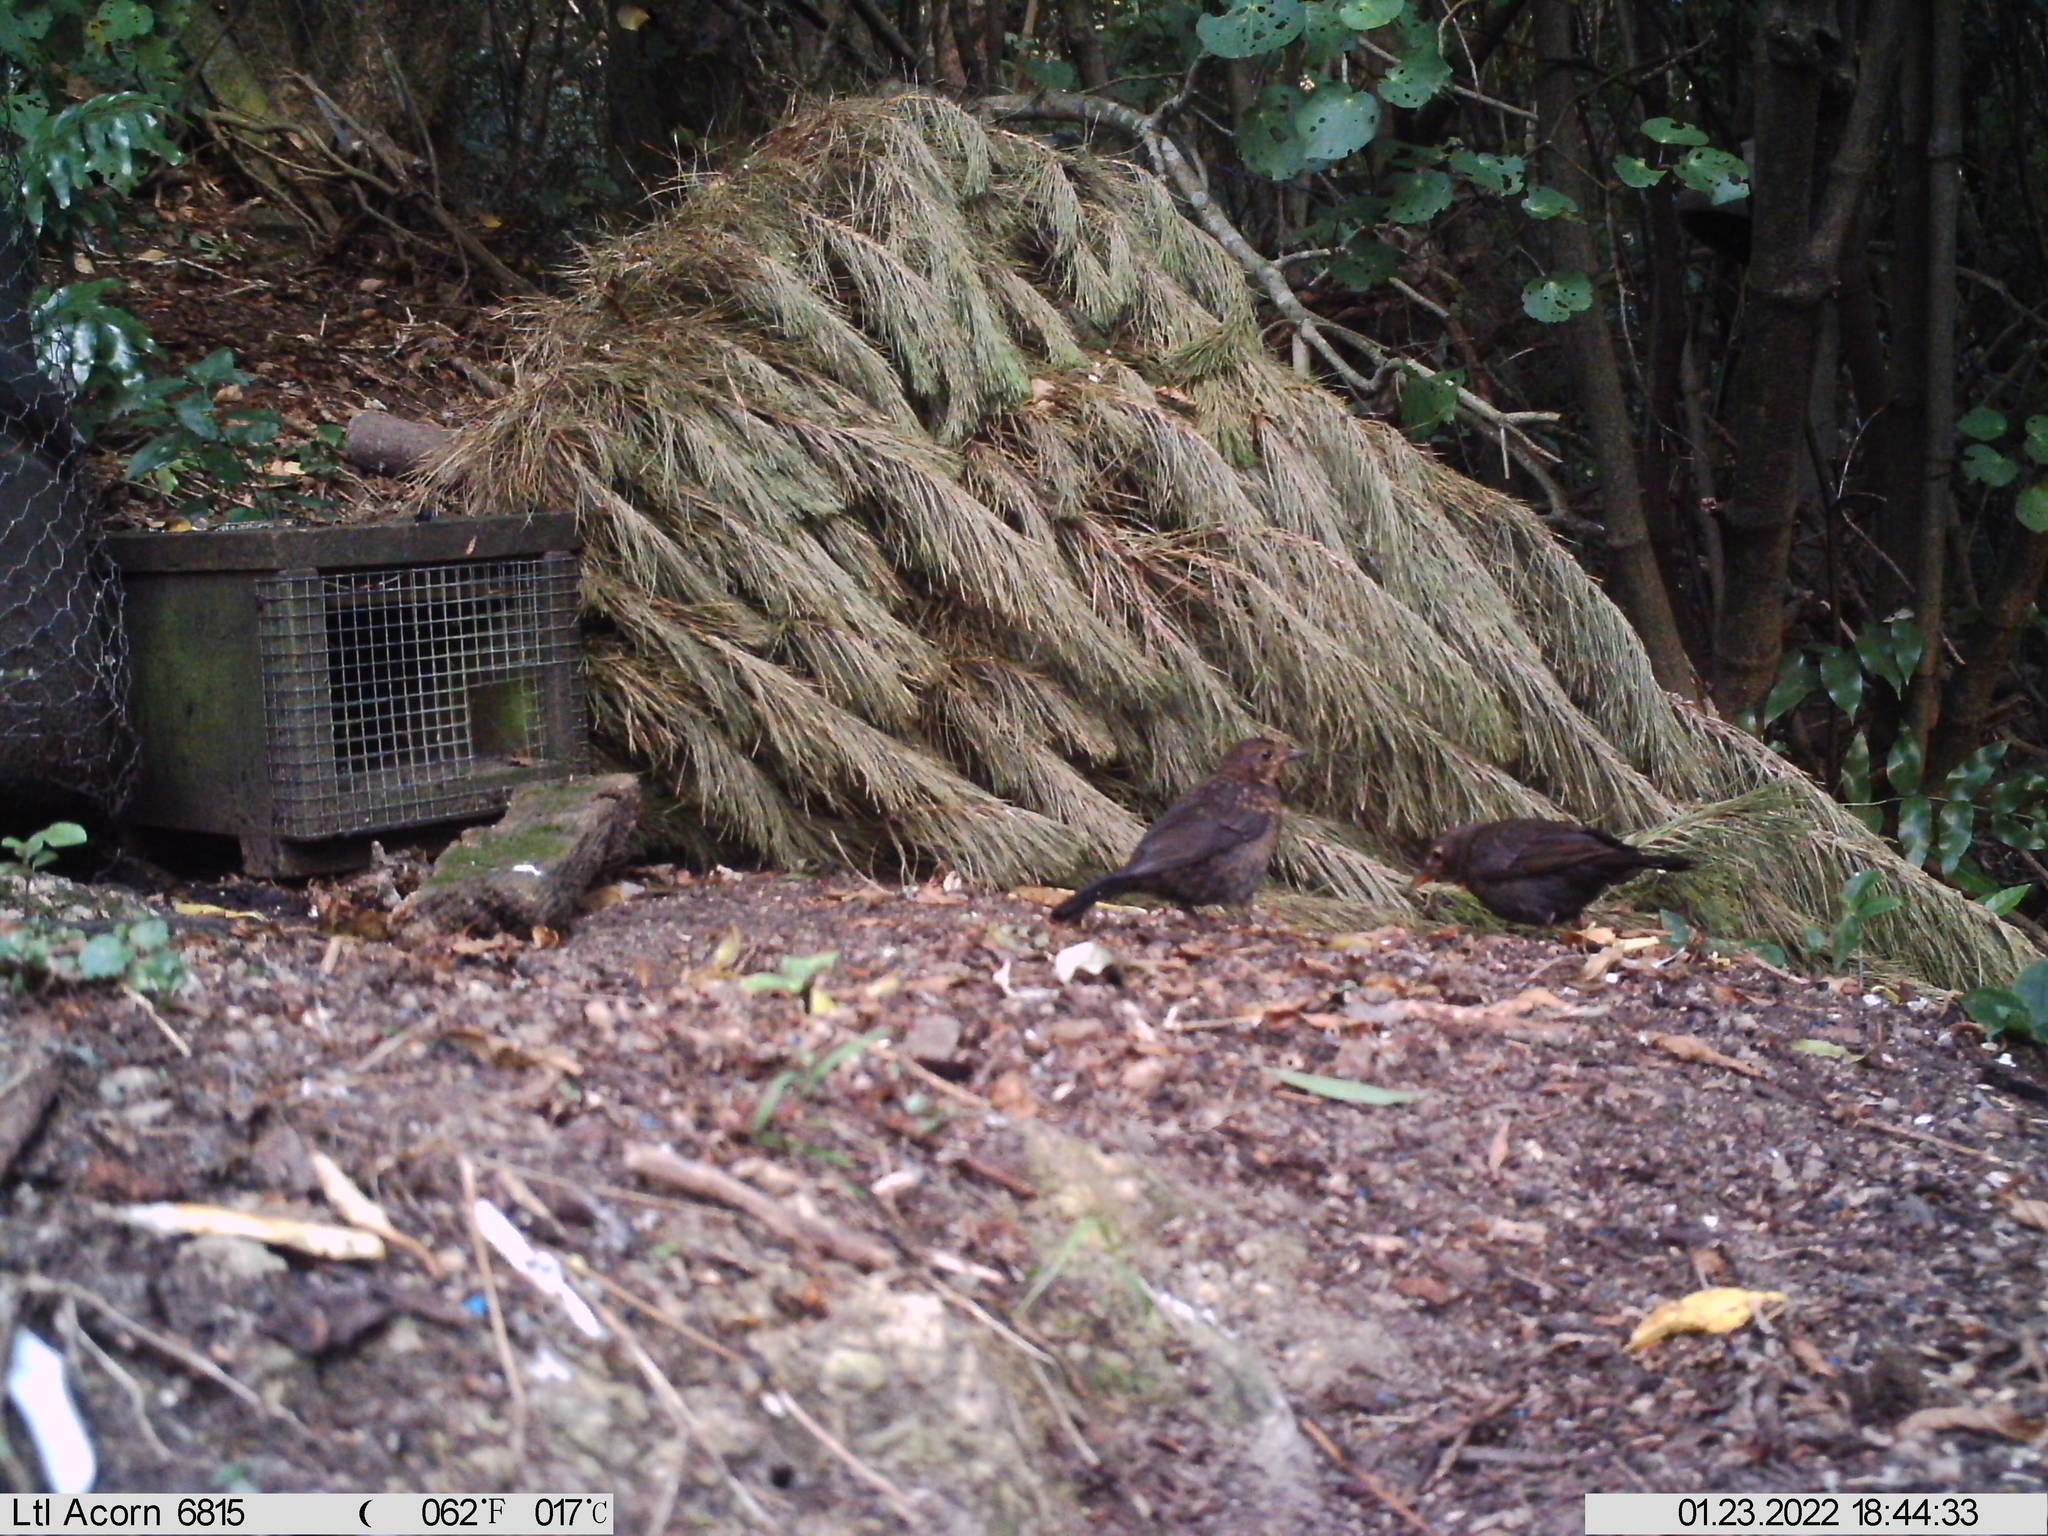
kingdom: Animalia
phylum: Chordata
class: Aves
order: Passeriformes
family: Turdidae
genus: Turdus
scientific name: Turdus merula
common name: Common blackbird
